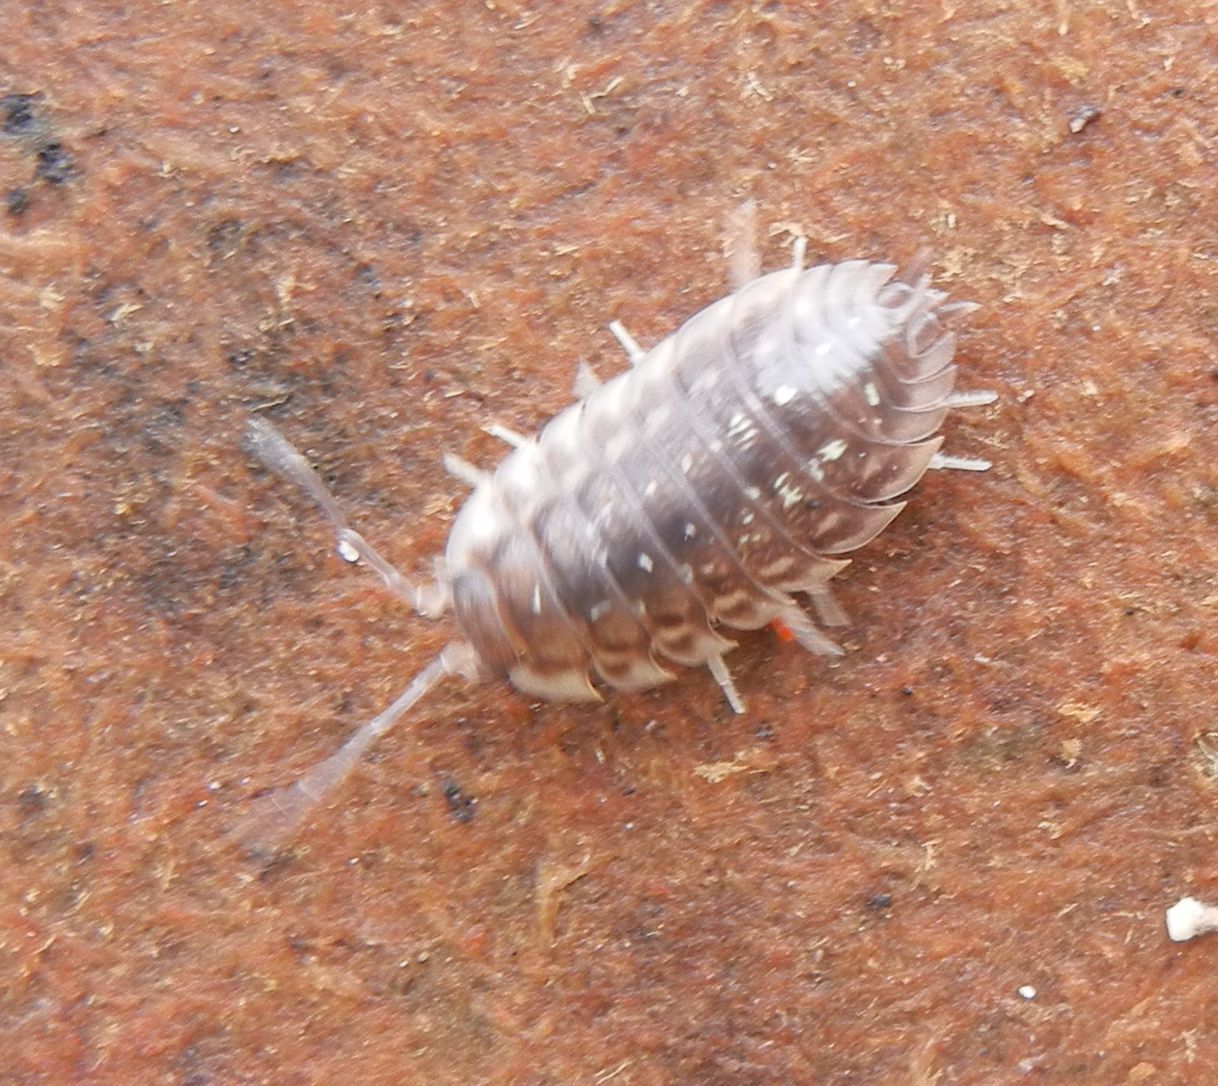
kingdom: Animalia
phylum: Arthropoda
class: Malacostraca
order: Isopoda
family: Oniscidae
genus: Oniscus
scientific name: Oniscus asellus
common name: Common shiny woodlouse
